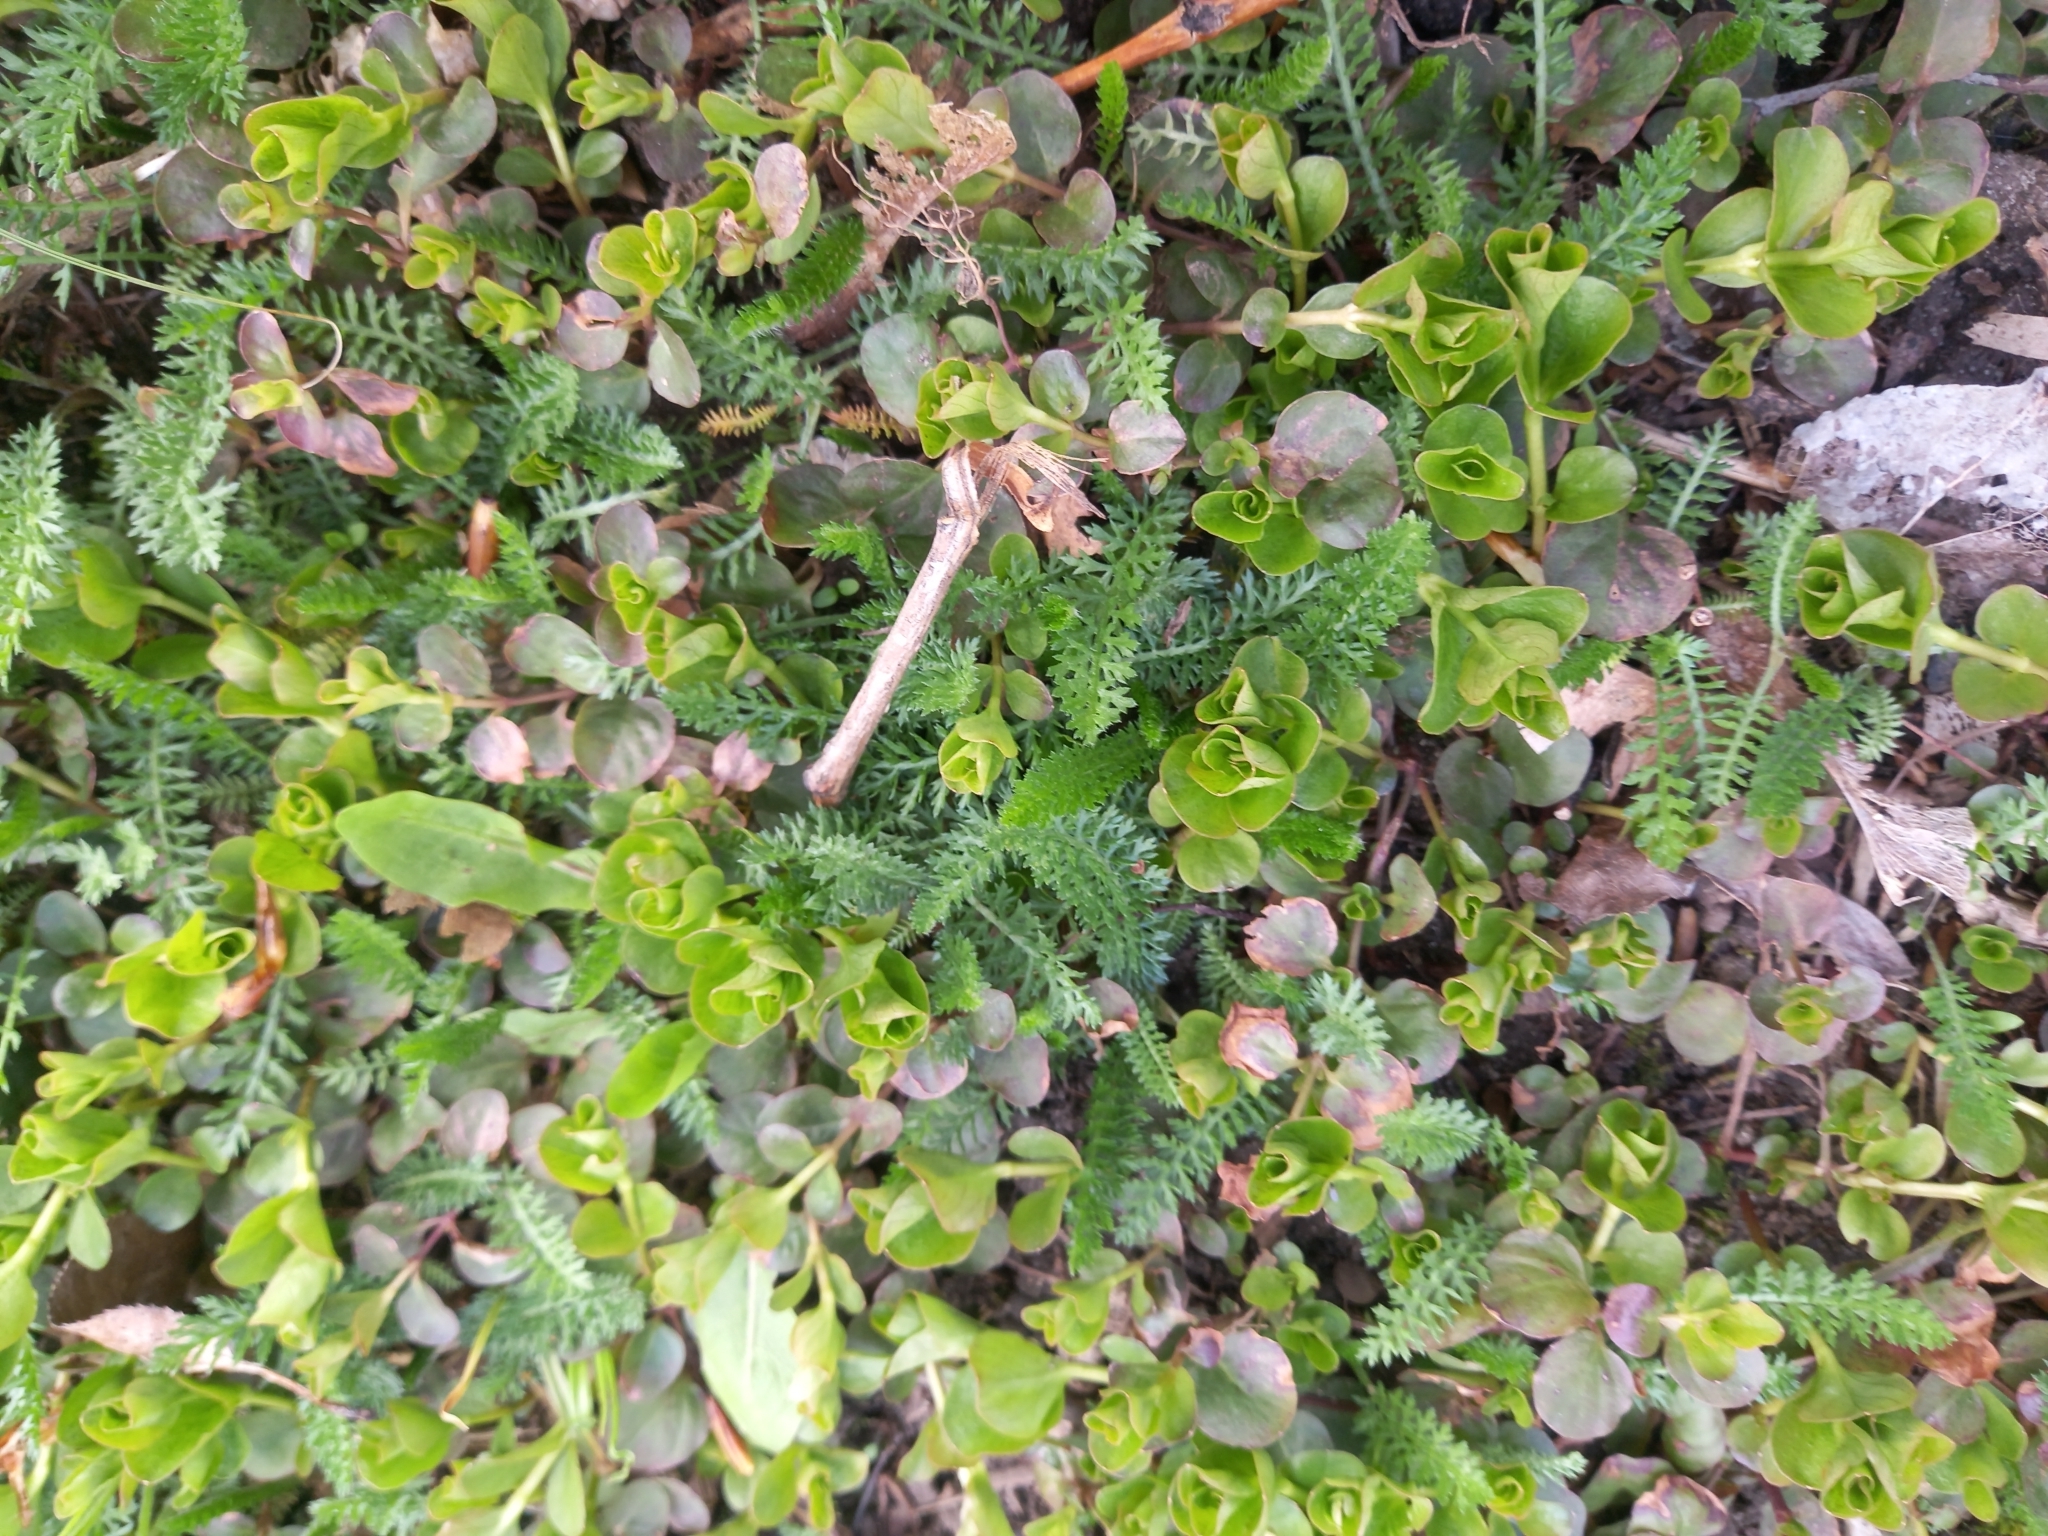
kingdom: Plantae
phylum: Tracheophyta
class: Magnoliopsida
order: Ericales
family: Primulaceae
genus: Lysimachia
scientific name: Lysimachia nummularia
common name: Moneywort
